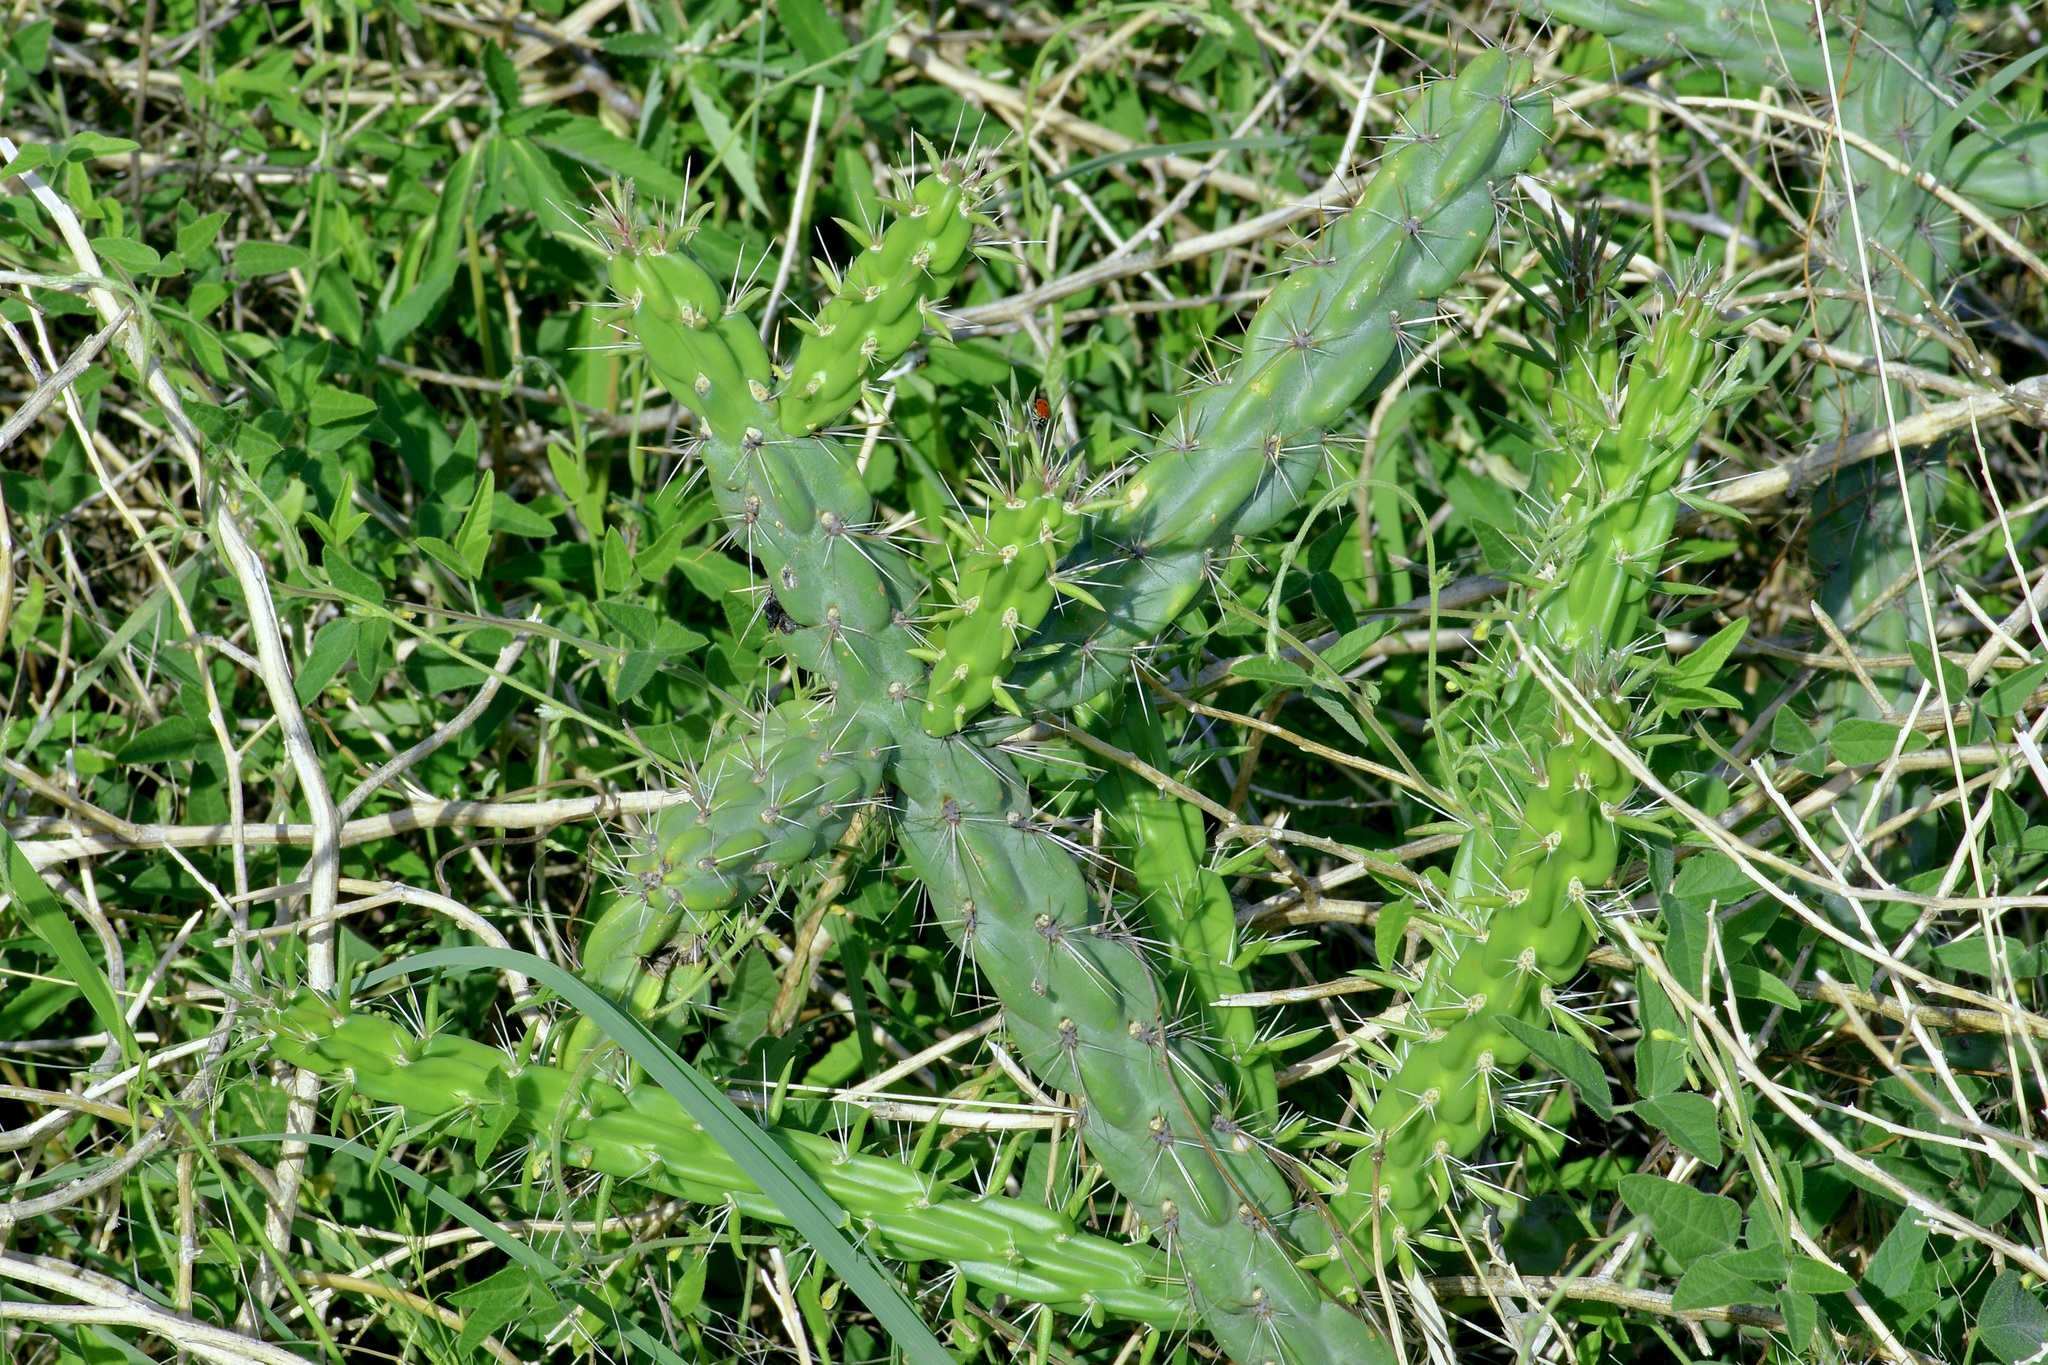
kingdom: Plantae
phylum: Tracheophyta
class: Magnoliopsida
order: Caryophyllales
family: Cactaceae
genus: Cylindropuntia
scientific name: Cylindropuntia imbricata
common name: Candelabrum cactus
